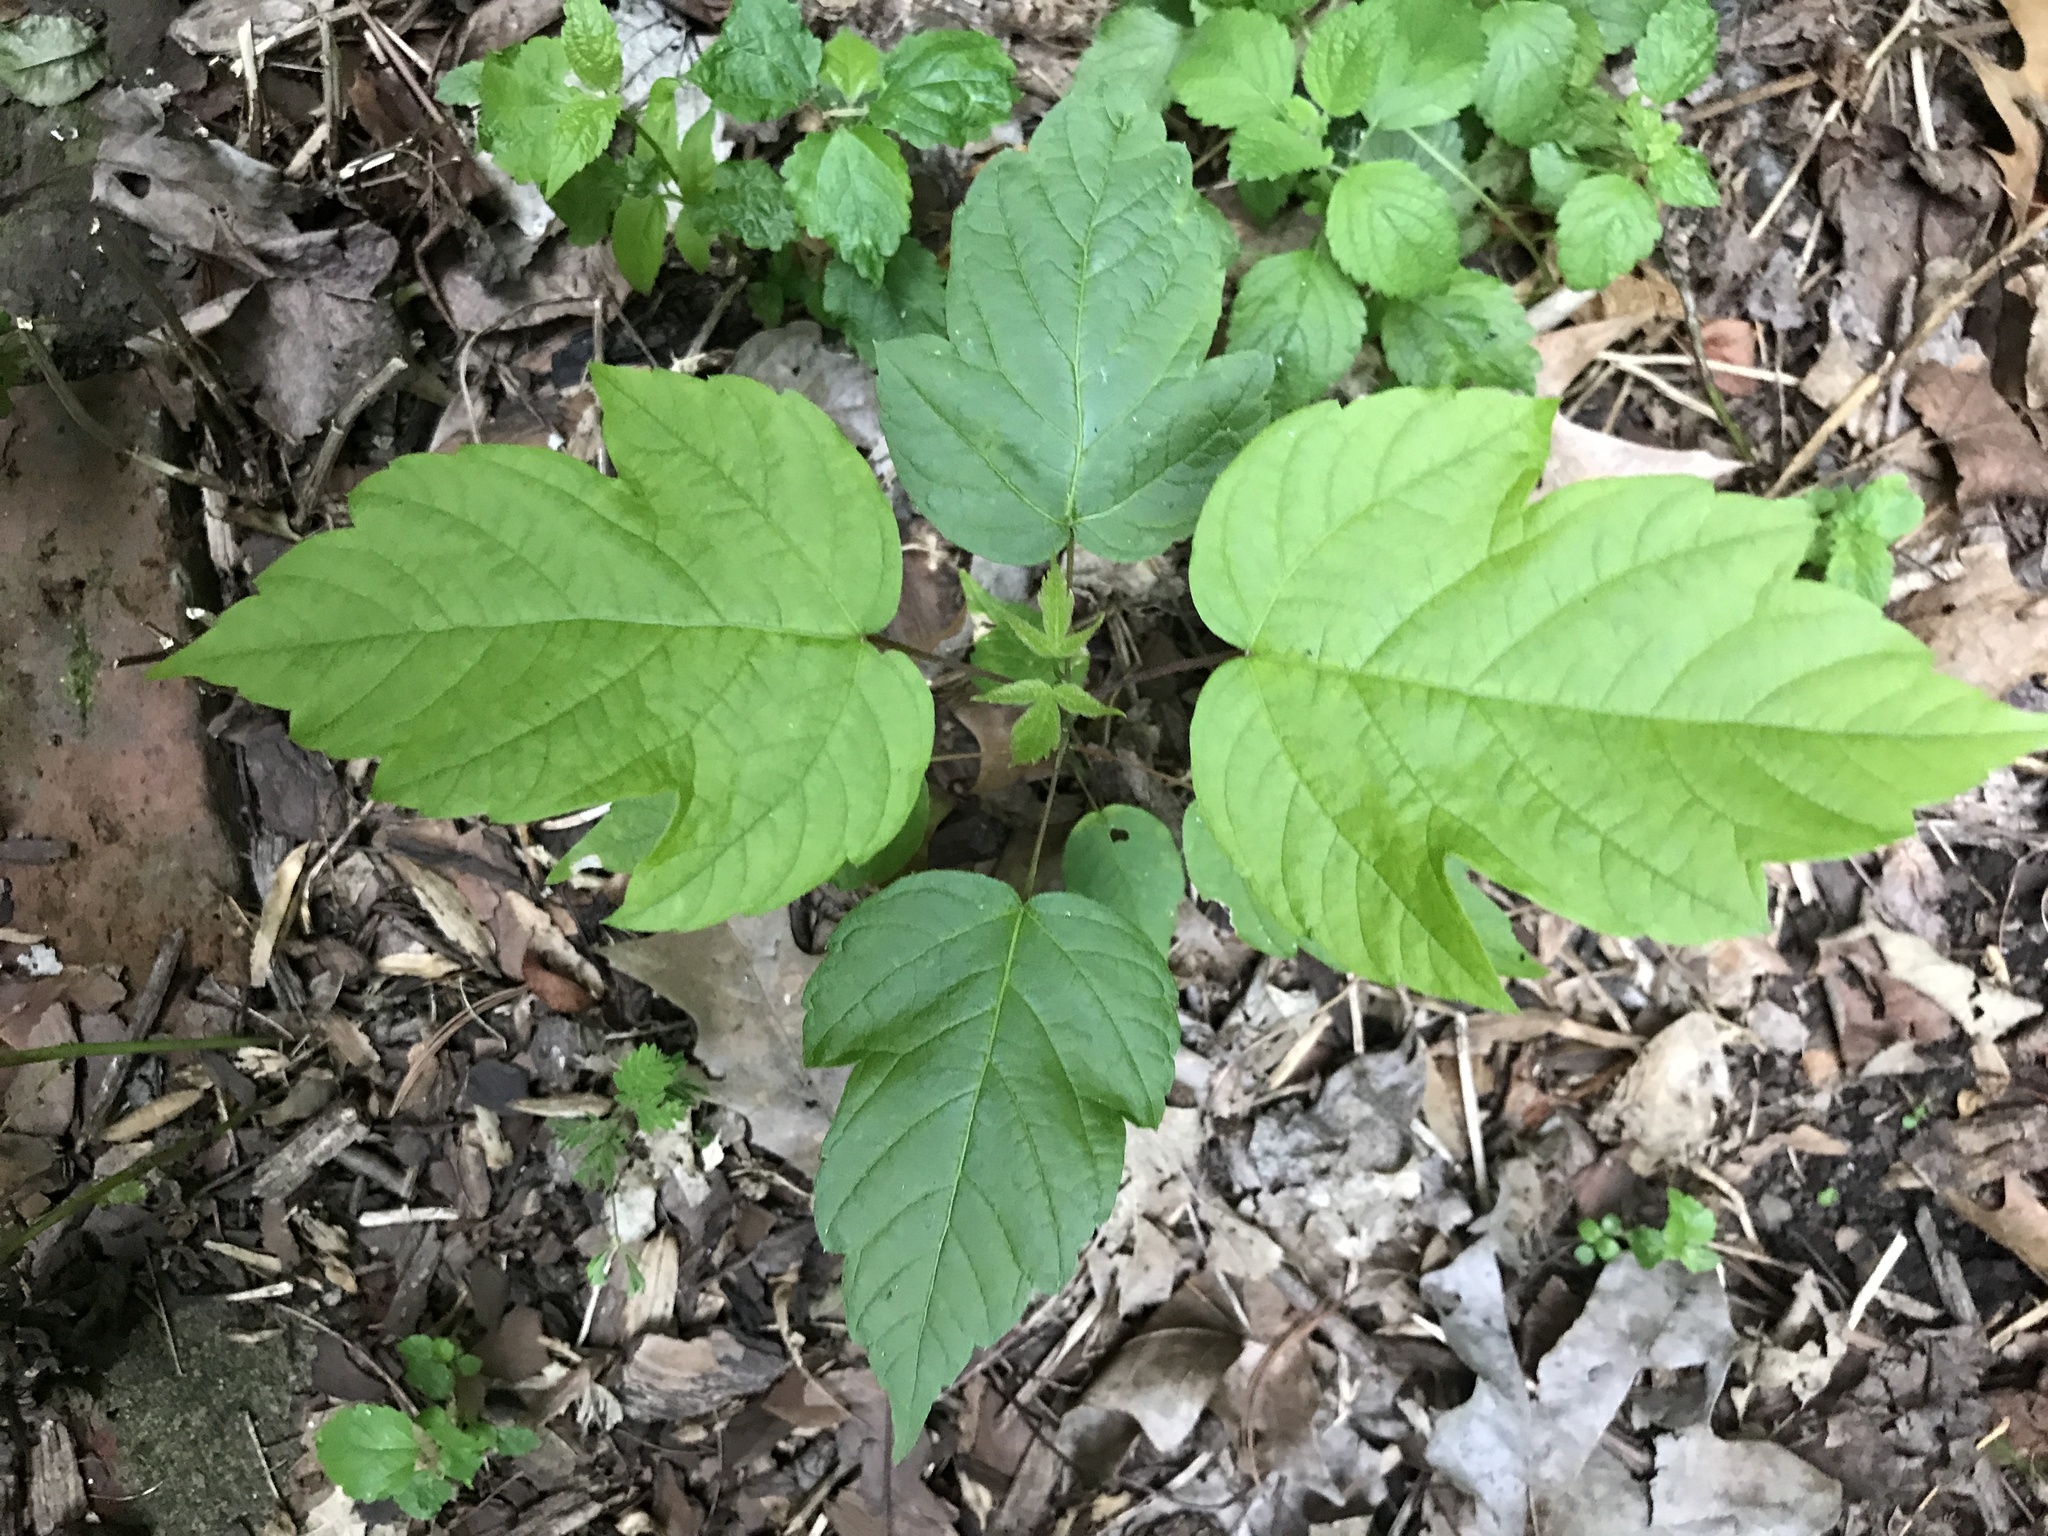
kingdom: Plantae
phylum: Tracheophyta
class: Magnoliopsida
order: Sapindales
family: Sapindaceae
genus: Acer
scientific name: Acer negundo
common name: Ashleaf maple
